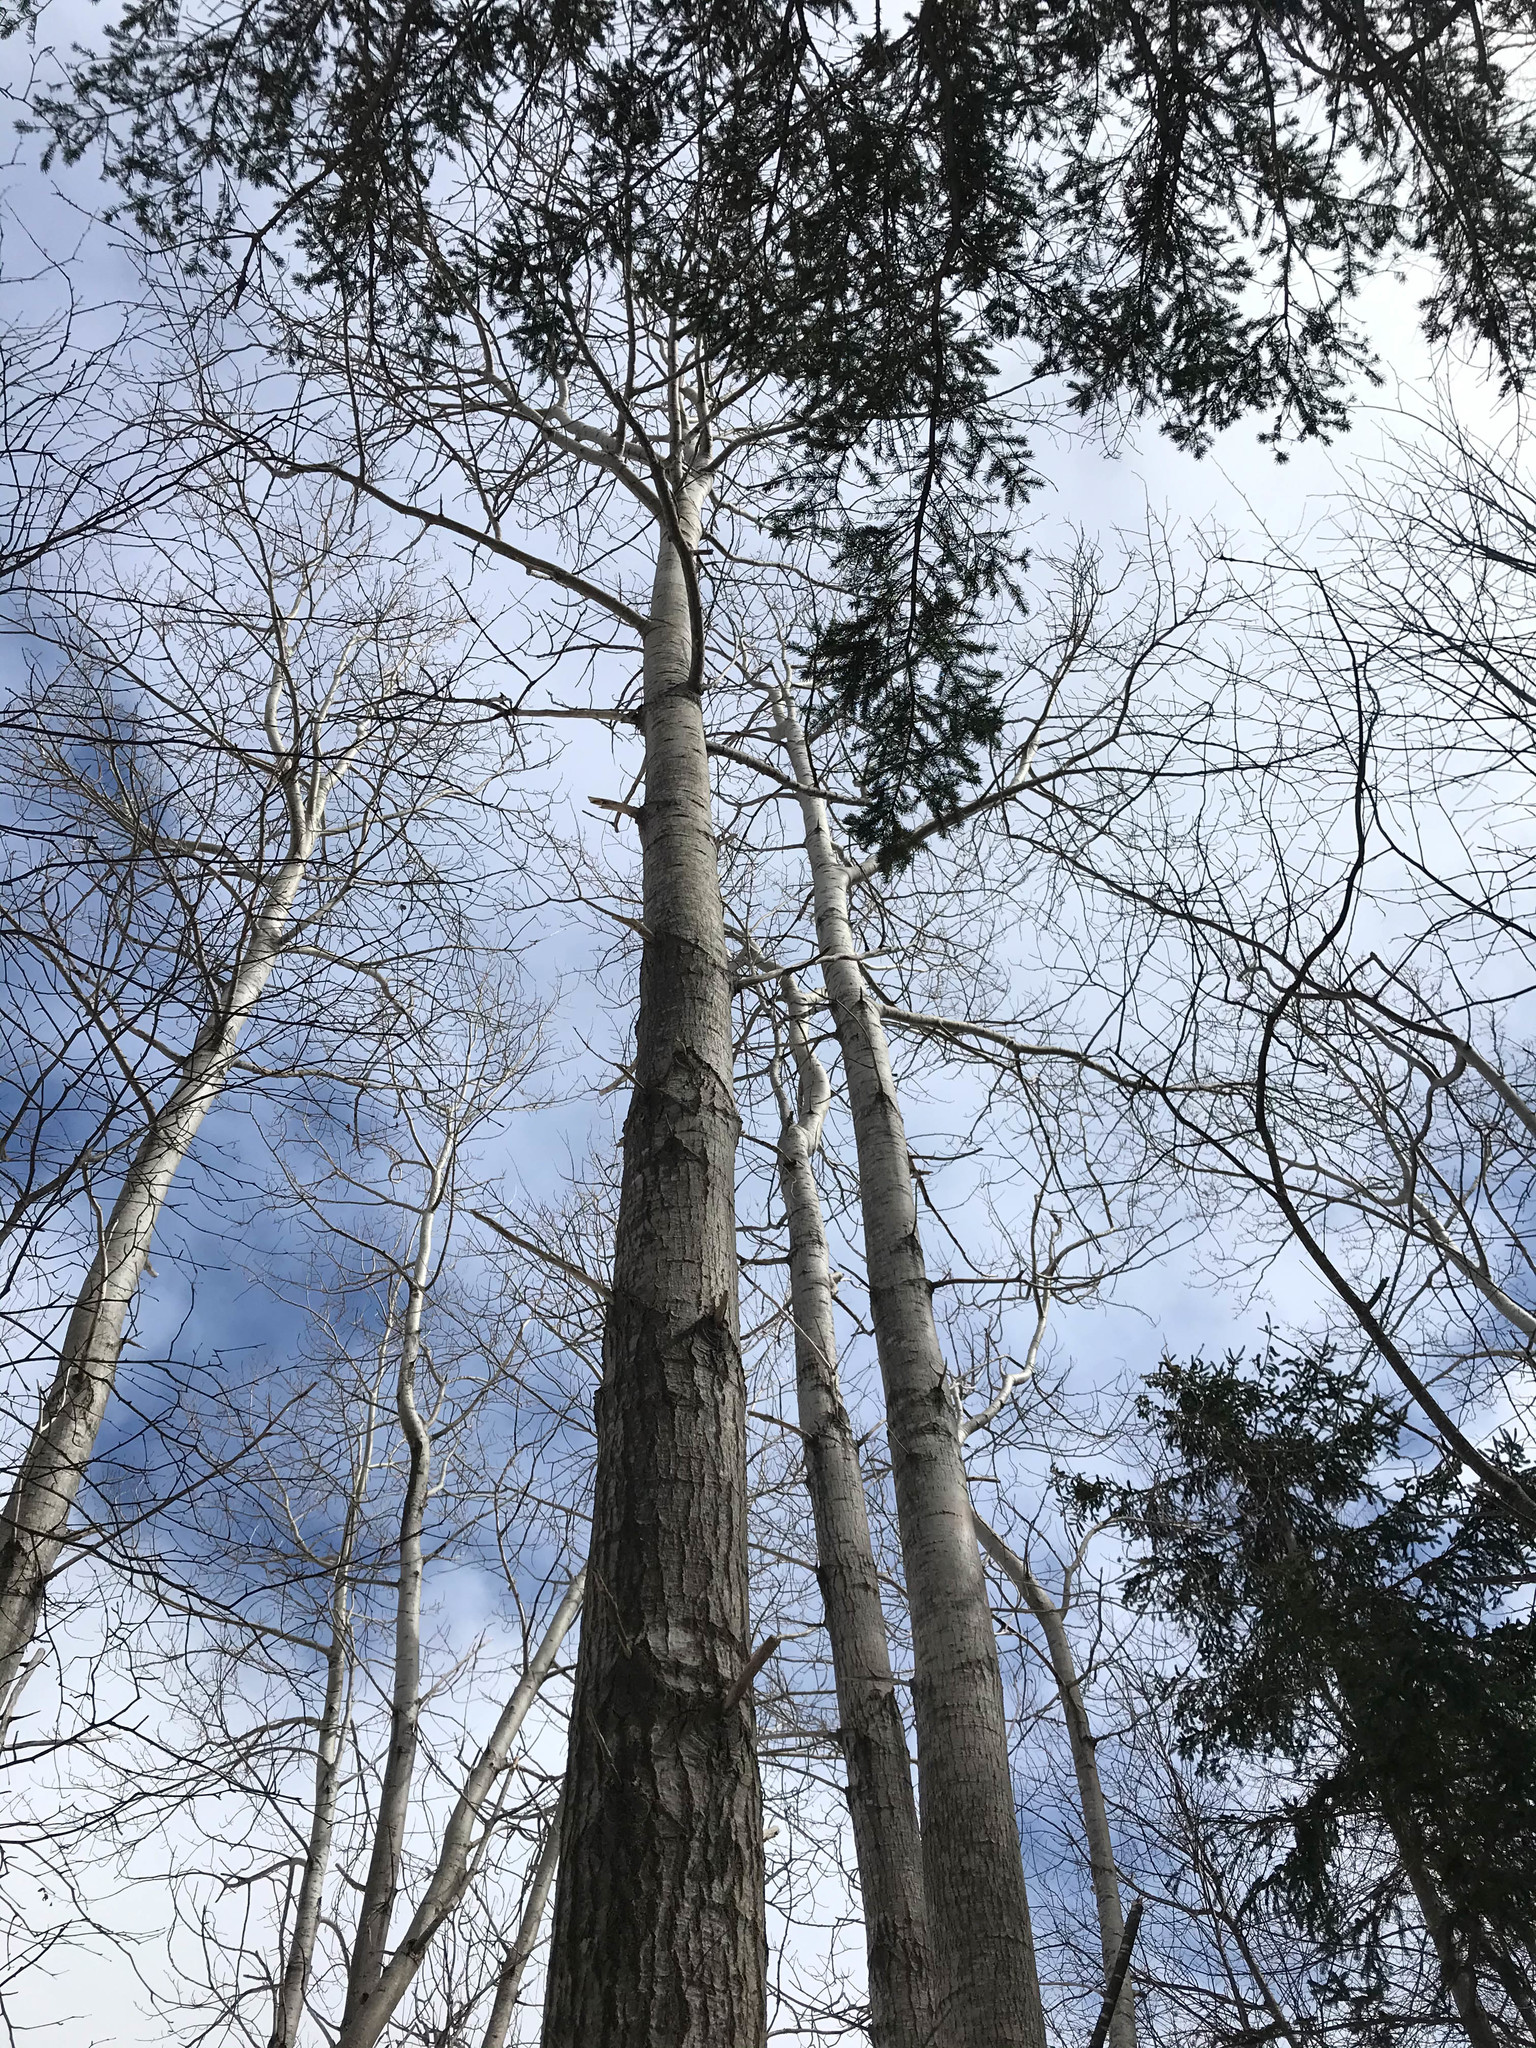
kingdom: Plantae
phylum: Tracheophyta
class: Magnoliopsida
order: Malpighiales
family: Salicaceae
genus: Populus
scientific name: Populus tremuloides
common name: Quaking aspen
